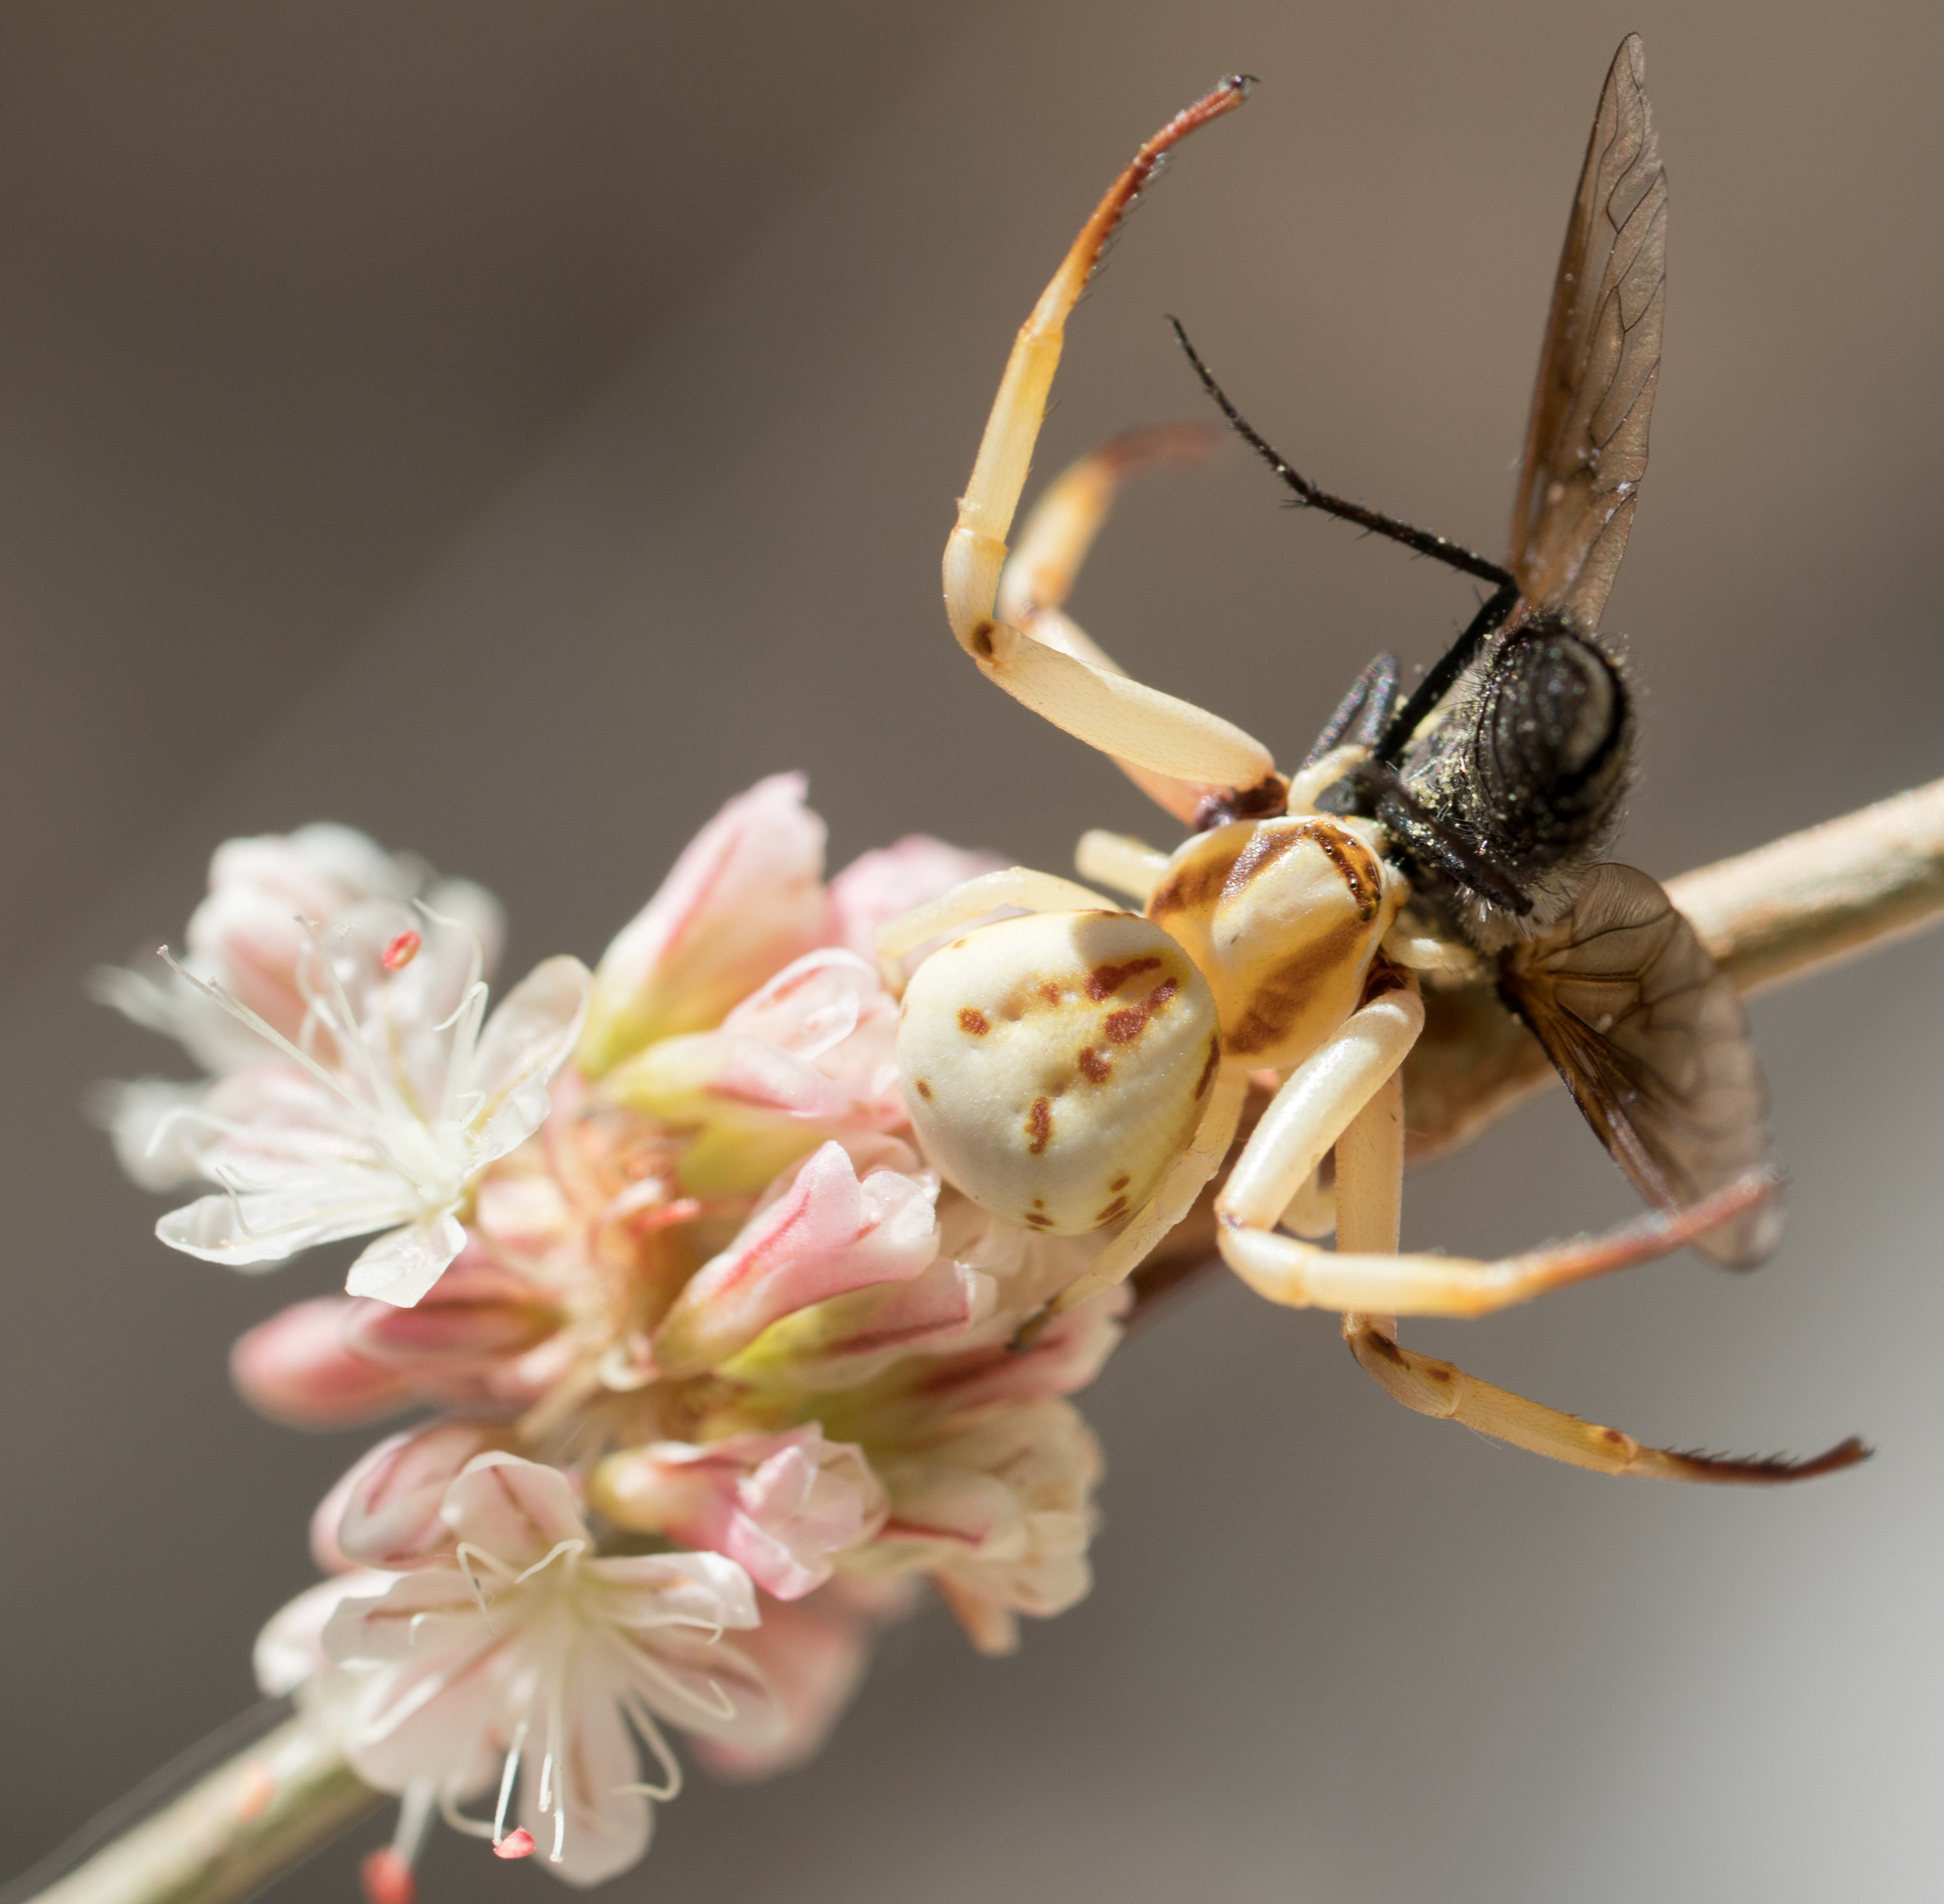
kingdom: Animalia
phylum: Arthropoda
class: Arachnida
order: Araneae
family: Thomisidae
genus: Misumenoides
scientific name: Misumenoides formosipes
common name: White-banded crab spider
